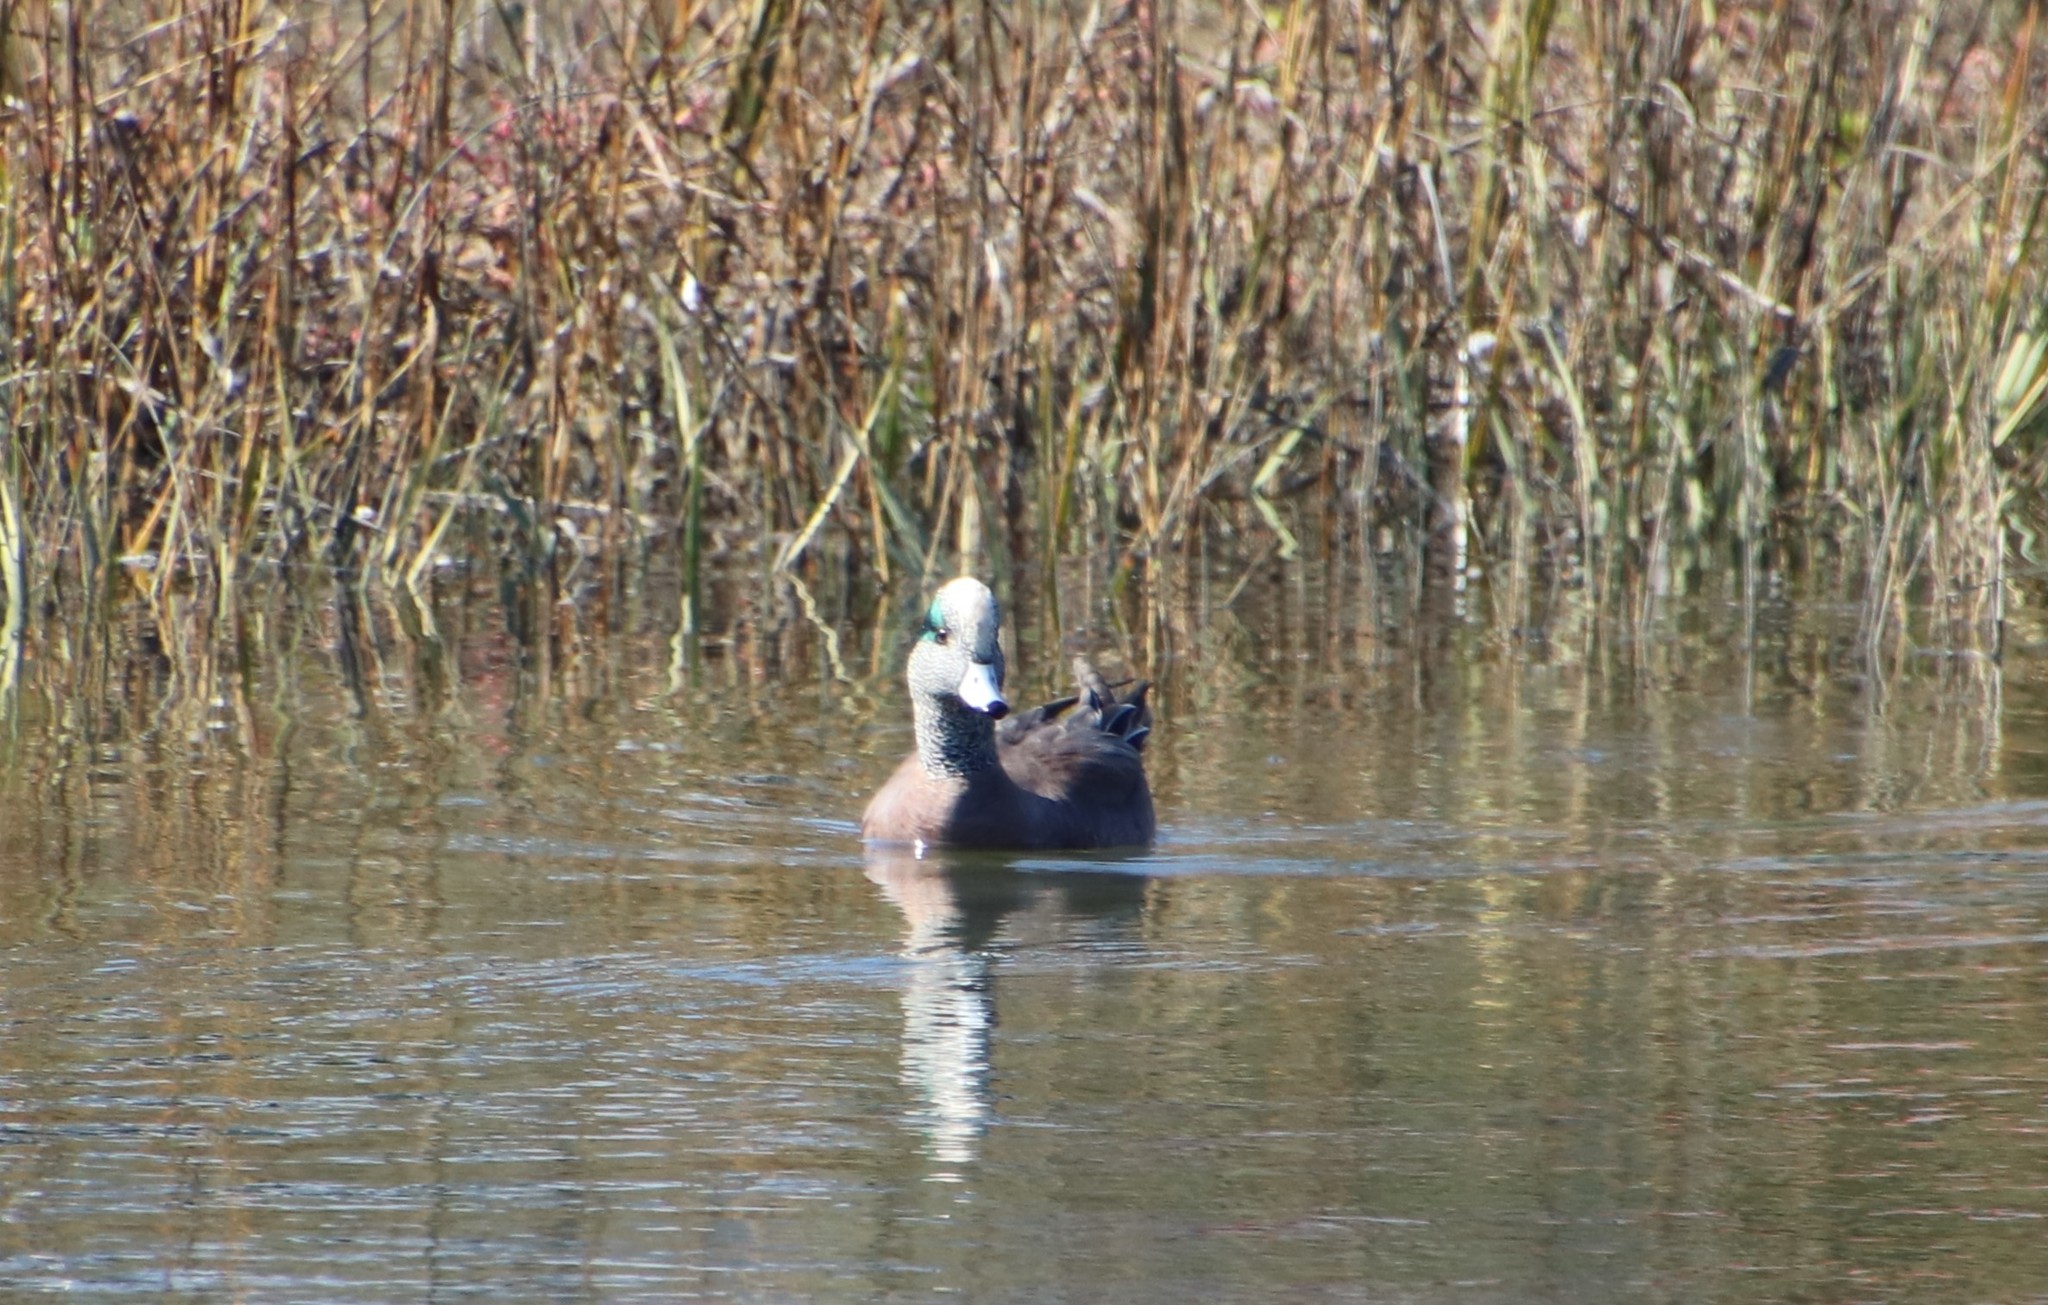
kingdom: Animalia
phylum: Chordata
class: Aves
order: Anseriformes
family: Anatidae
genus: Mareca
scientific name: Mareca americana
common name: American wigeon
